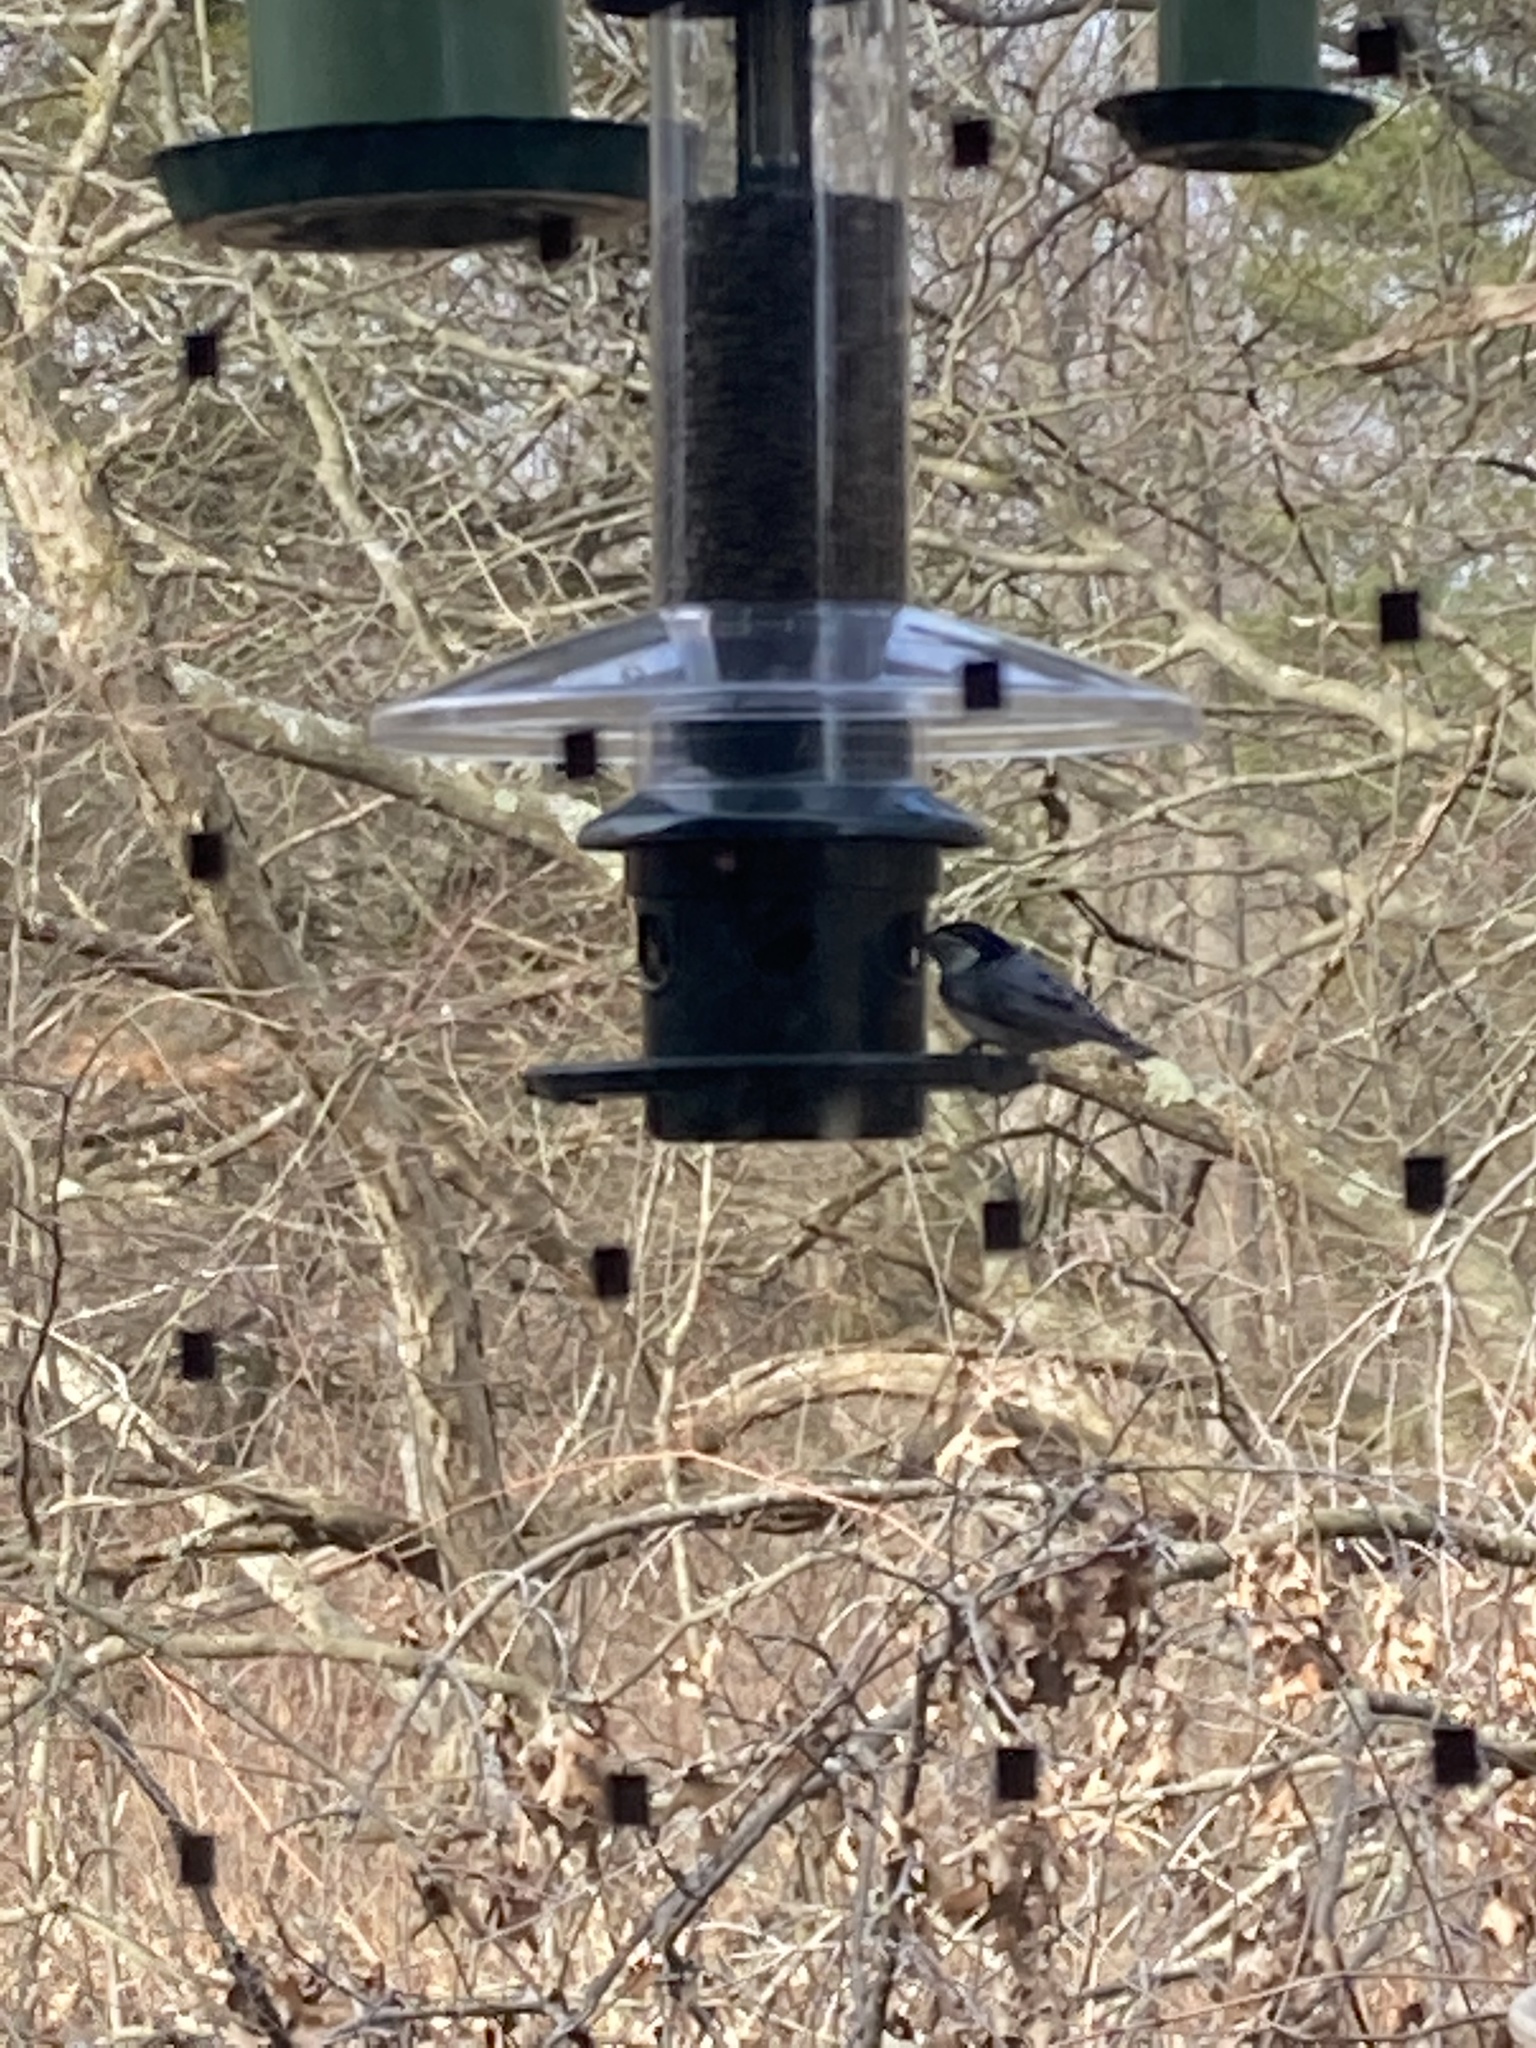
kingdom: Animalia
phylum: Chordata
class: Aves
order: Passeriformes
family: Sittidae
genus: Sitta
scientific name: Sitta carolinensis
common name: White-breasted nuthatch
